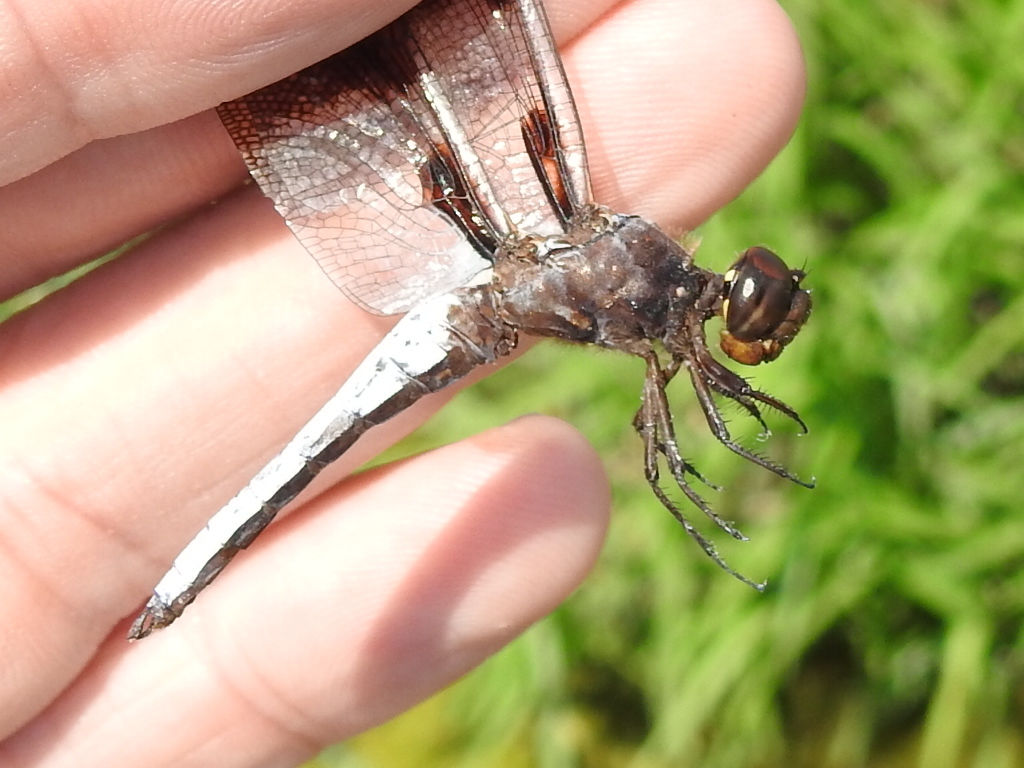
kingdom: Animalia
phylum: Arthropoda
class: Insecta
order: Odonata
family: Libellulidae
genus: Plathemis
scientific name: Plathemis lydia
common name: Common whitetail
